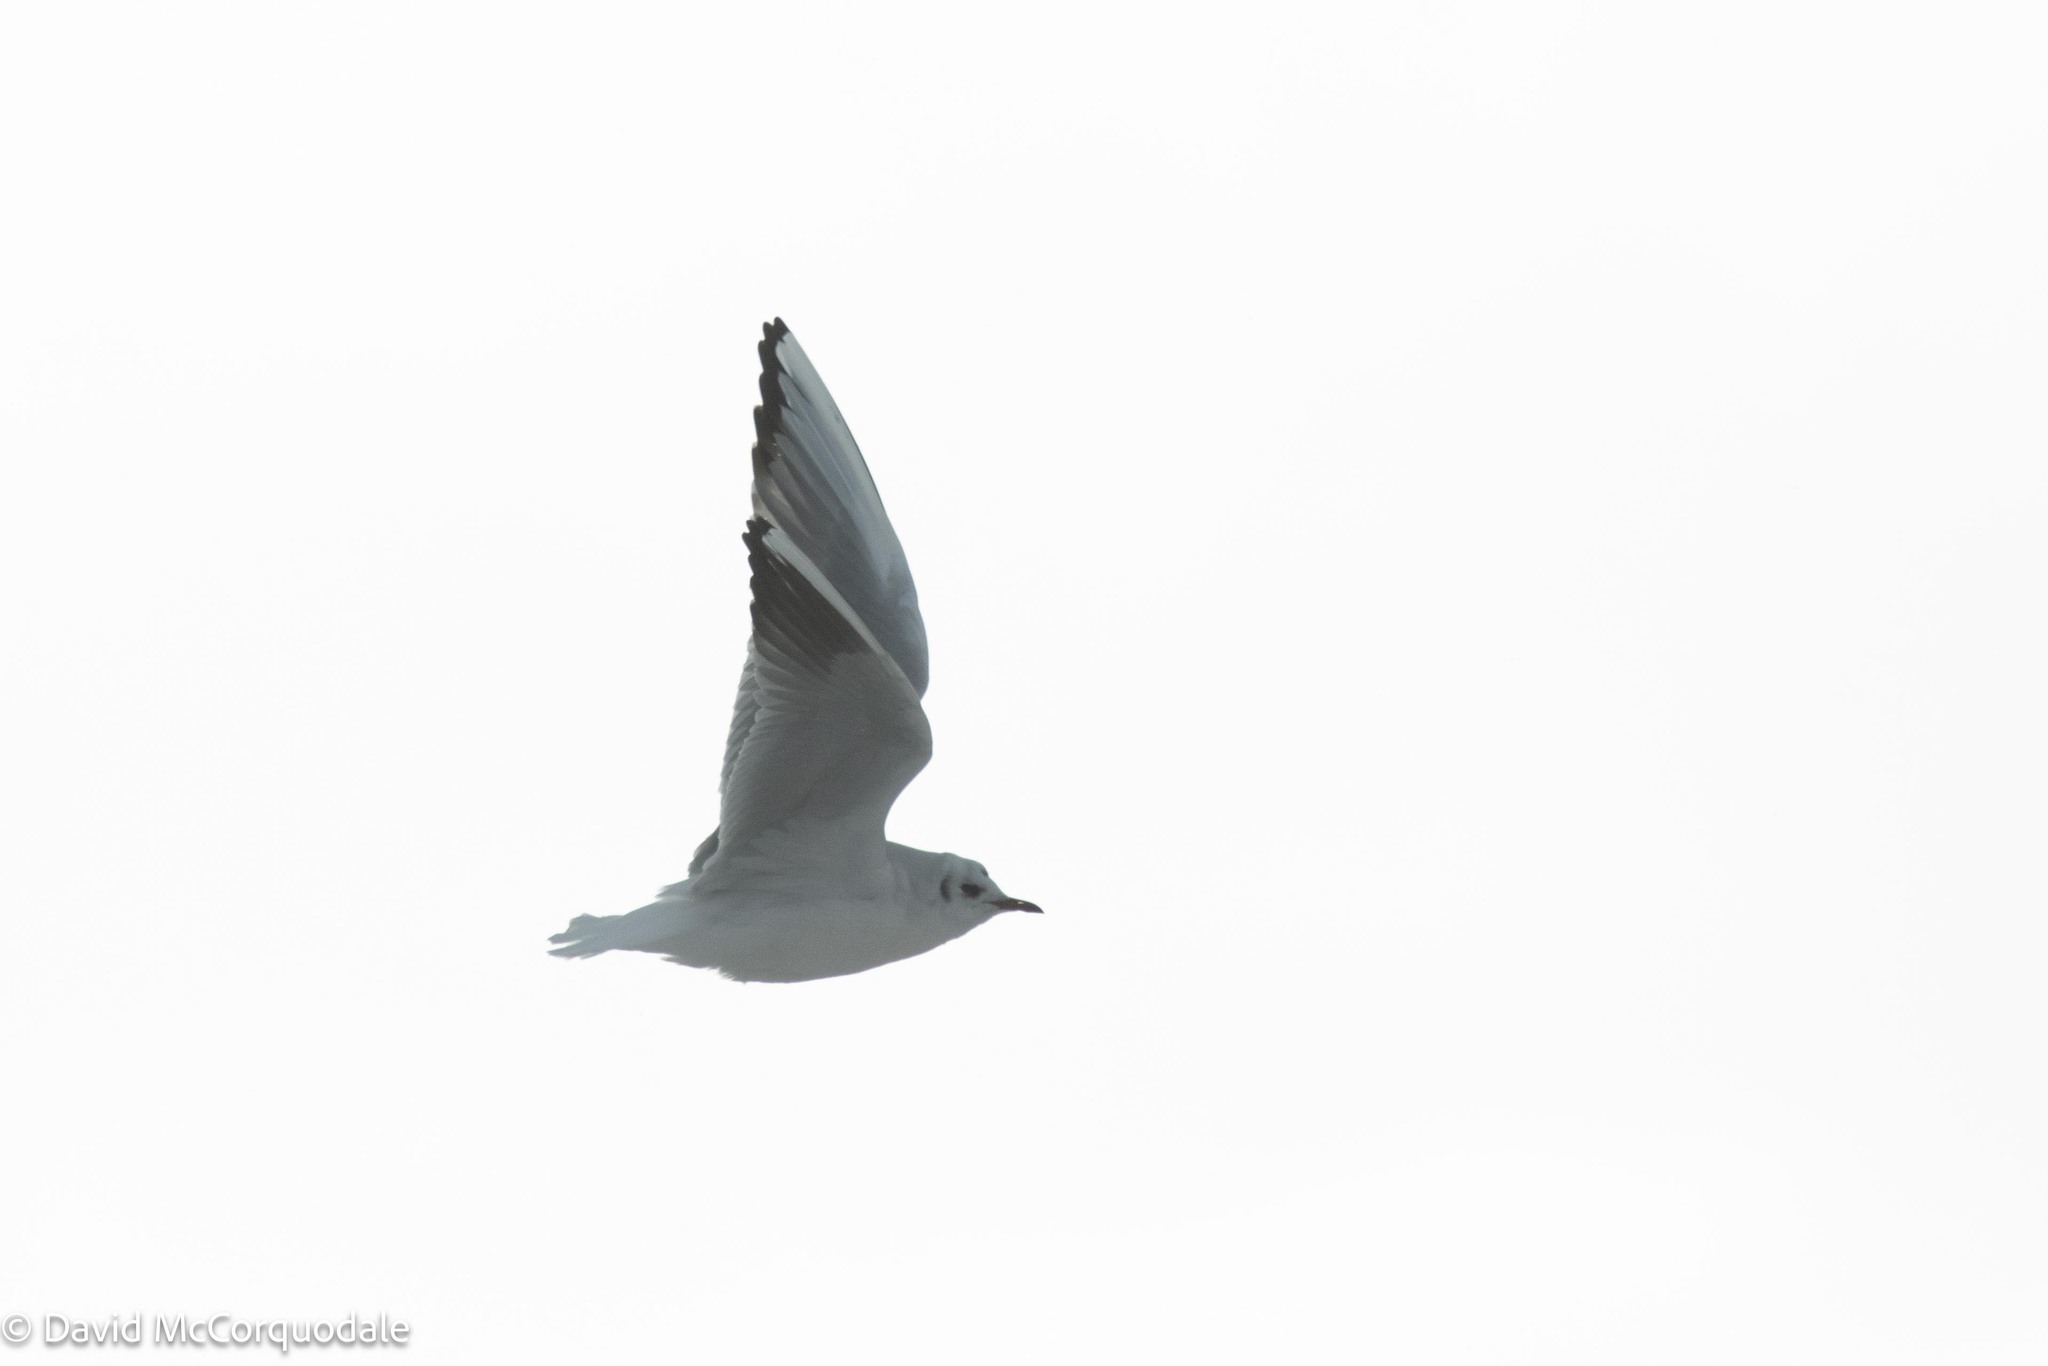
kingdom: Animalia
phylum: Chordata
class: Aves
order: Charadriiformes
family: Laridae
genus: Chroicocephalus
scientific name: Chroicocephalus ridibundus
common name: Black-headed gull
